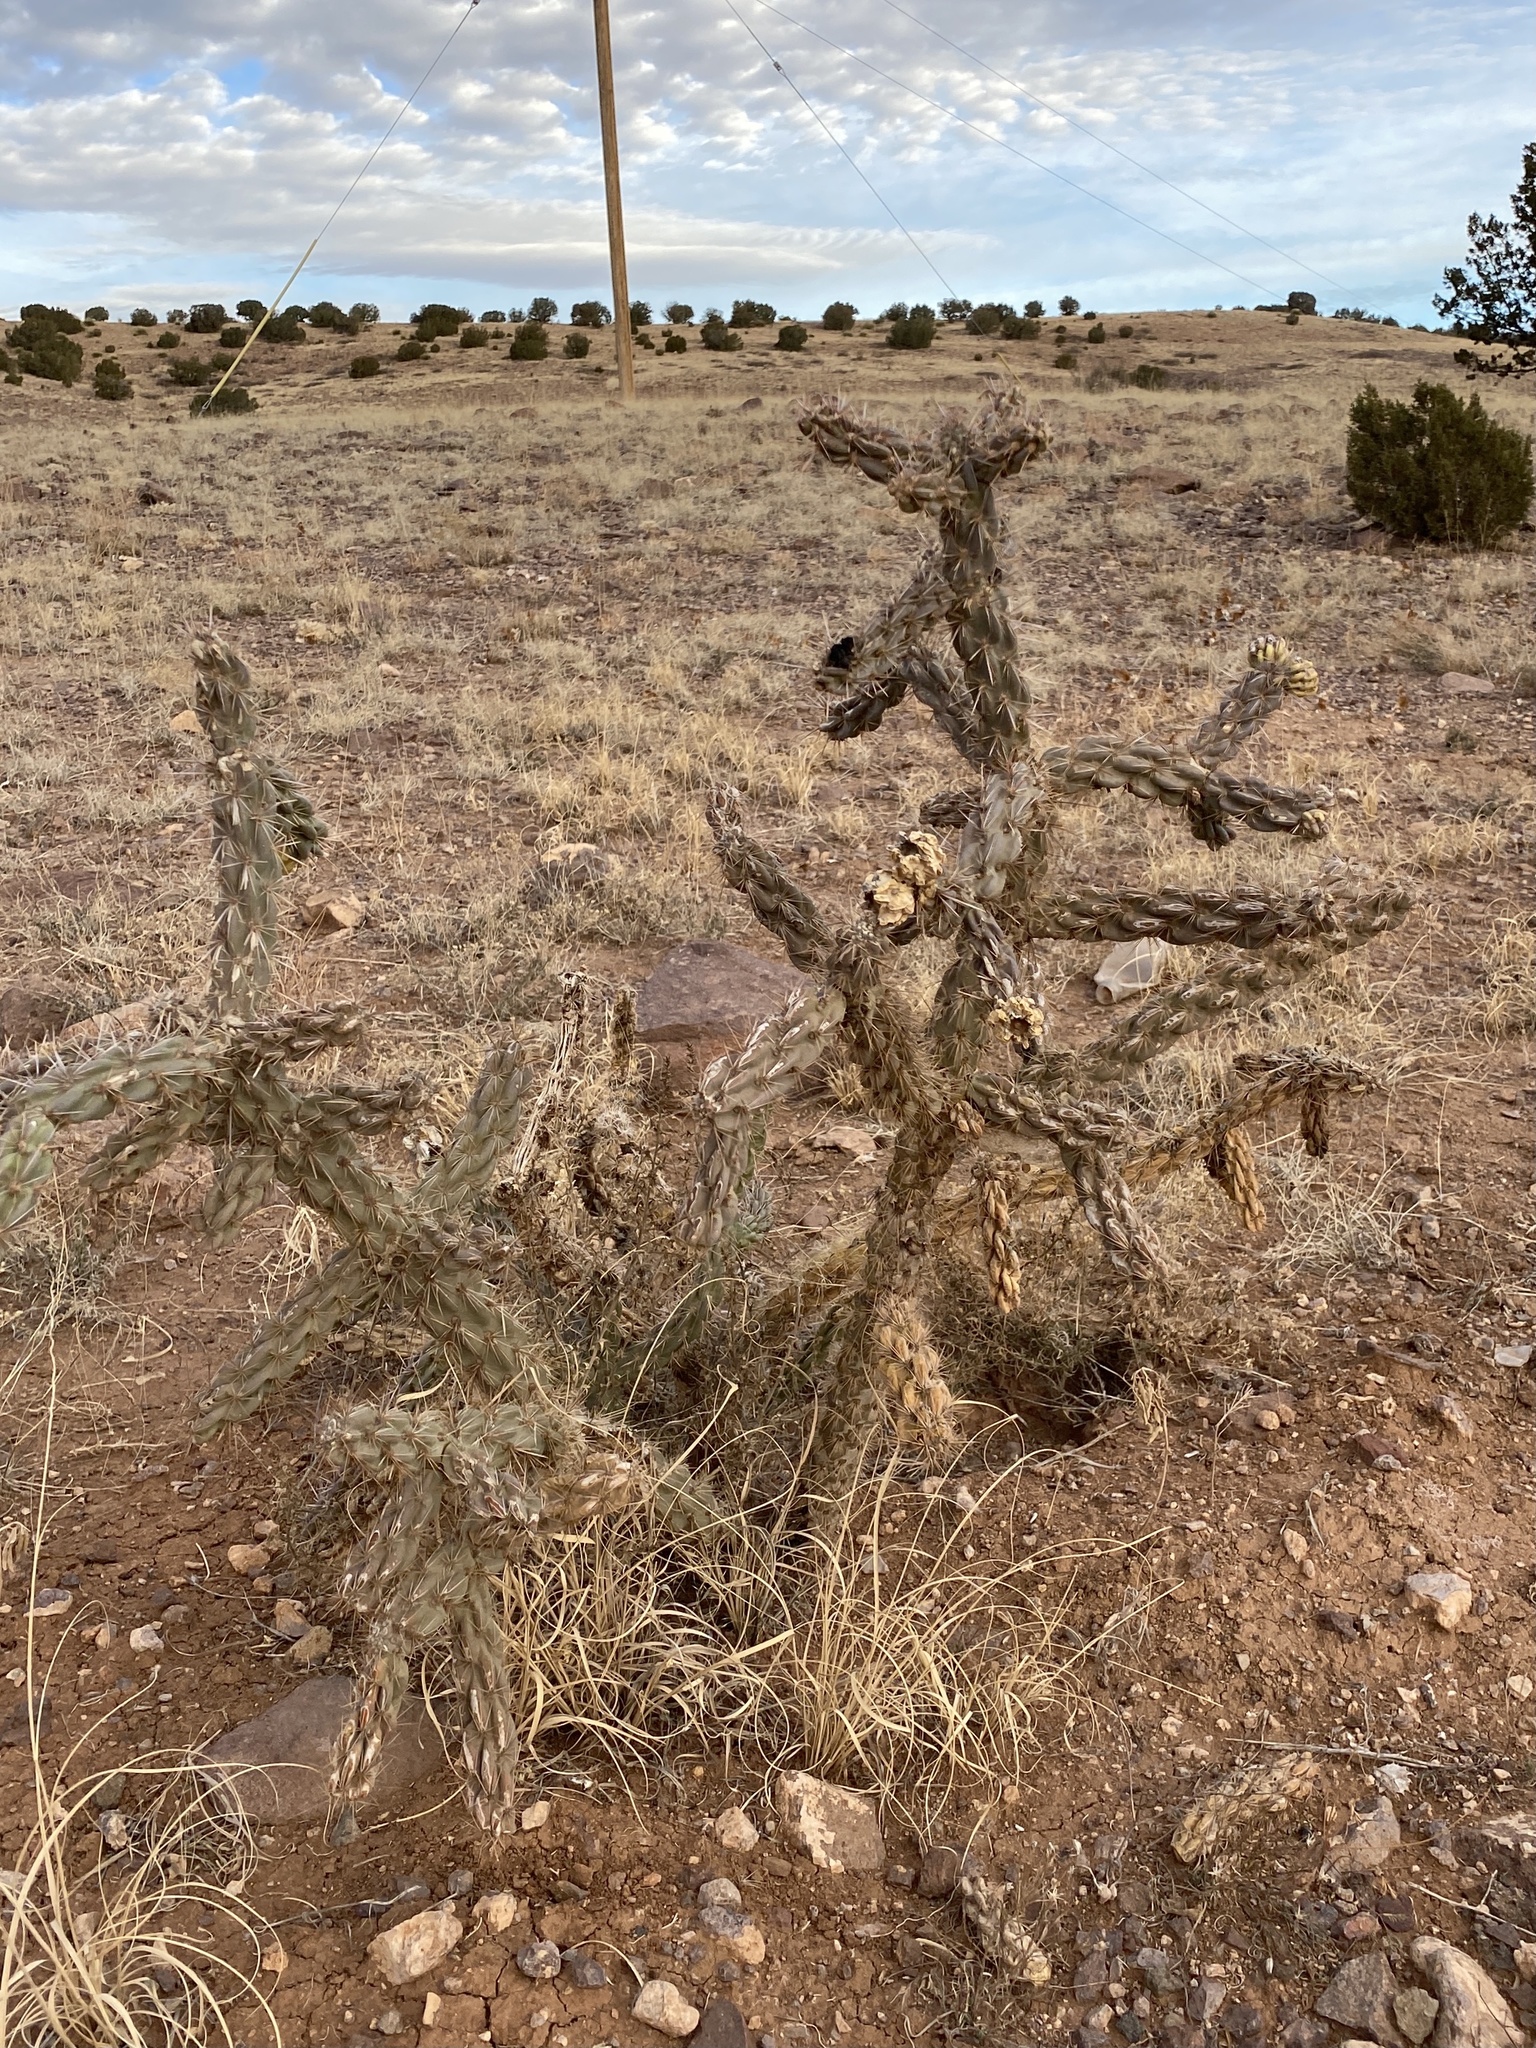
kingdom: Plantae
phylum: Tracheophyta
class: Magnoliopsida
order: Caryophyllales
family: Cactaceae
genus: Cylindropuntia
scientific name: Cylindropuntia imbricata
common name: Candelabrum cactus
